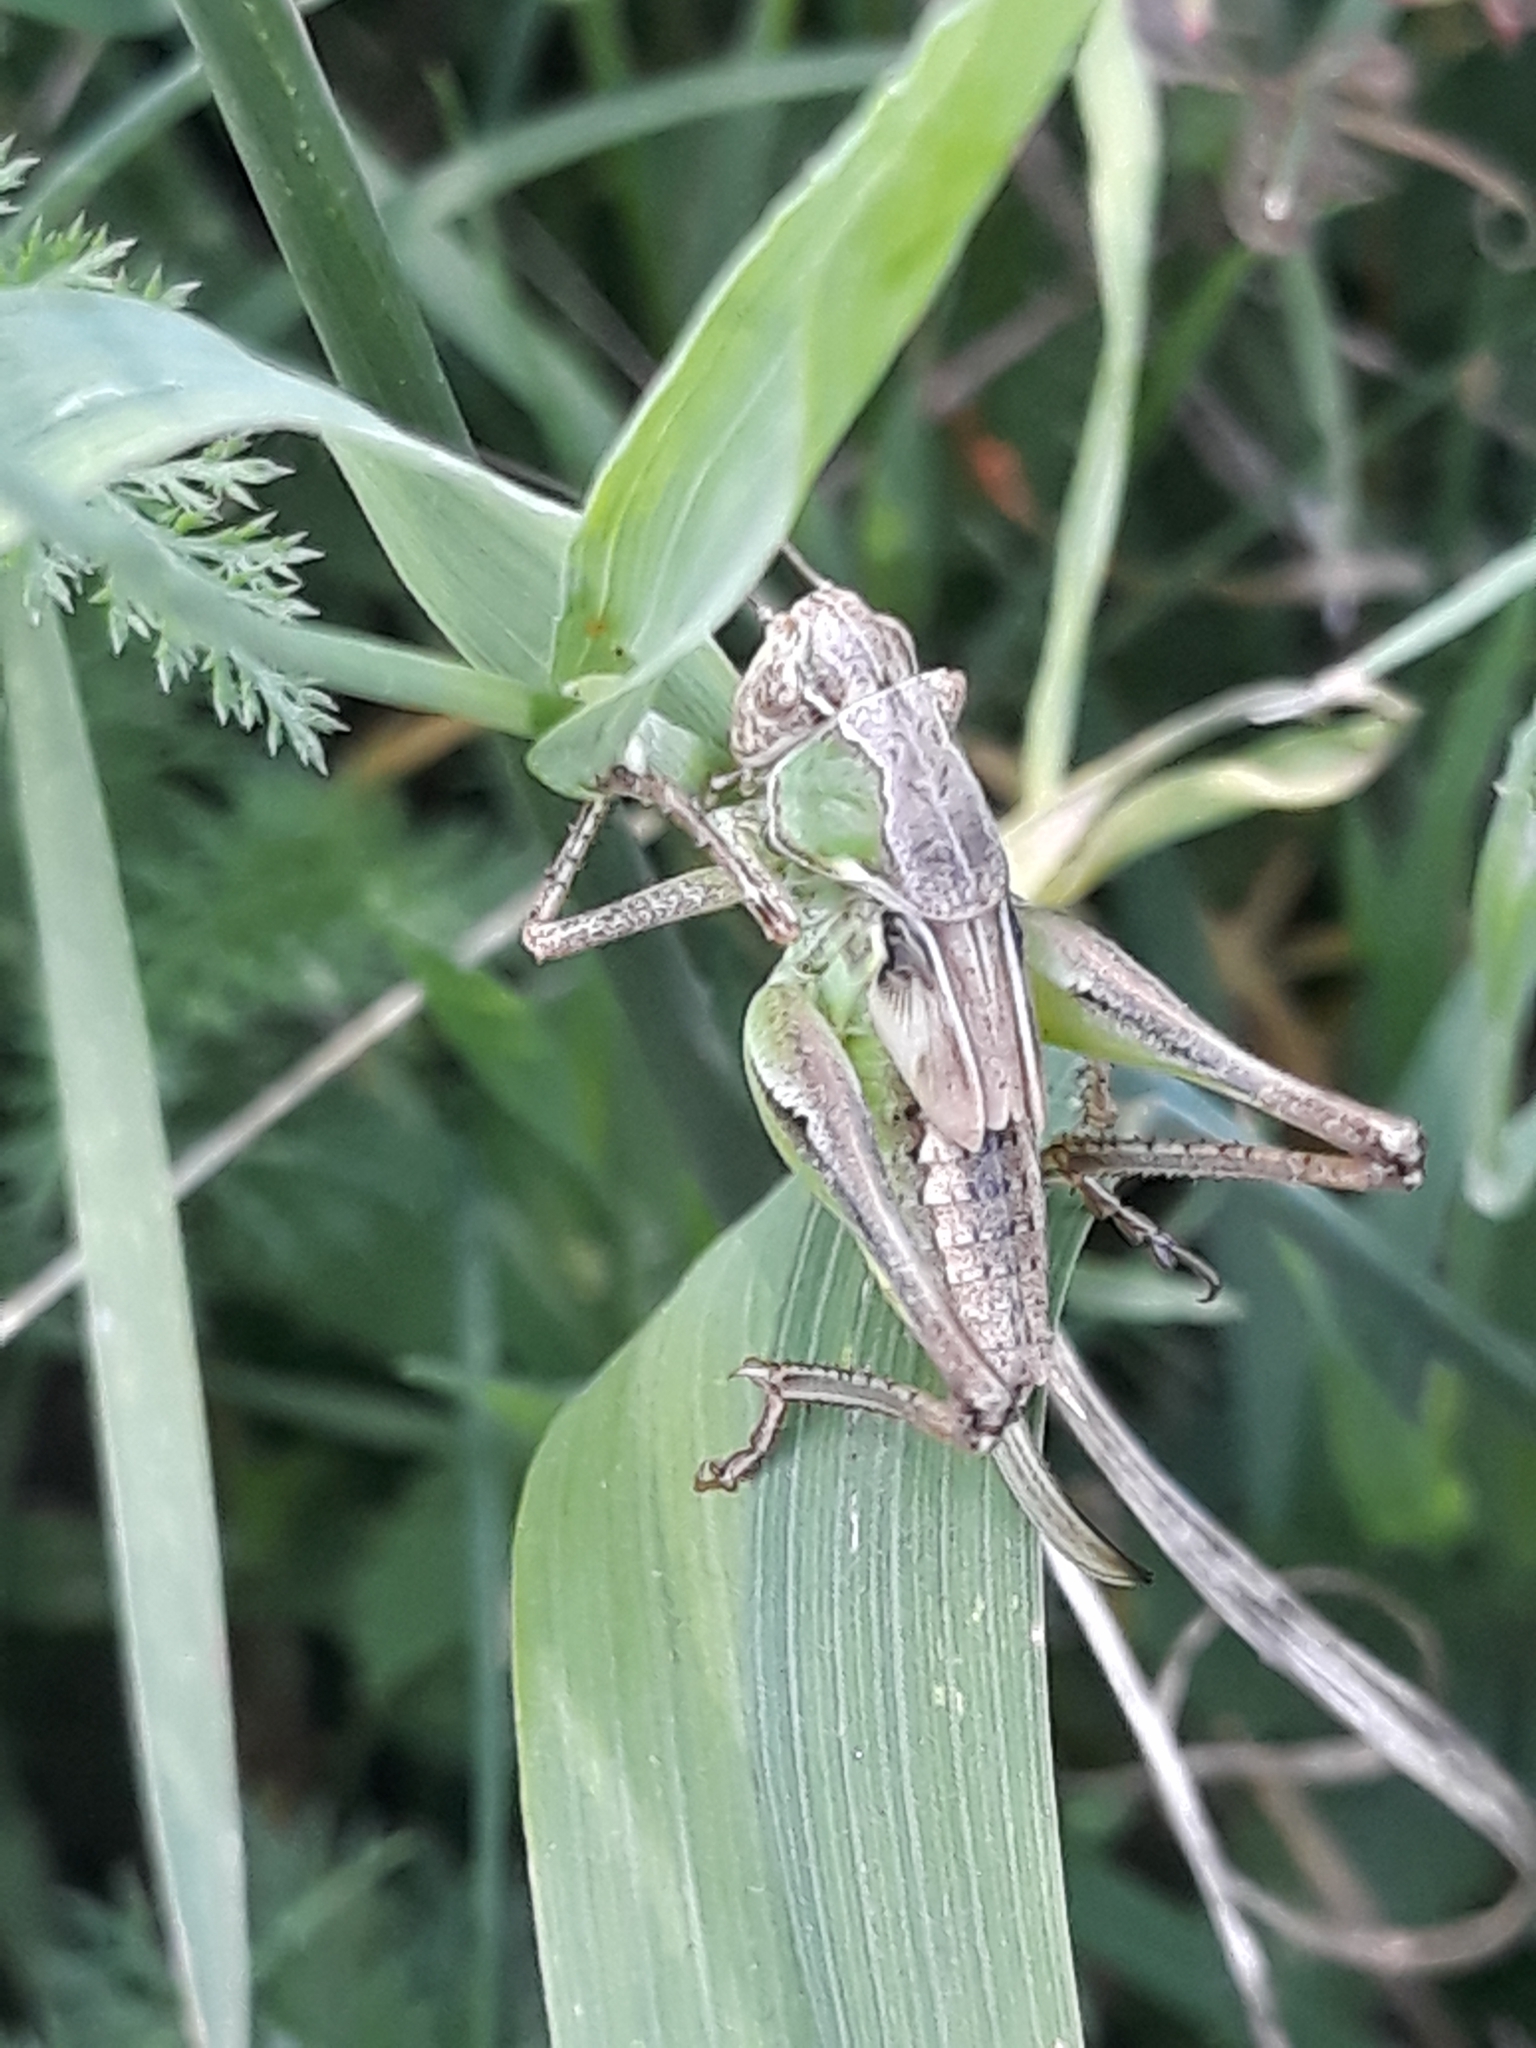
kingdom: Animalia
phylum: Arthropoda
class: Insecta
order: Orthoptera
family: Tettigoniidae
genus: Platycleis
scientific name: Platycleis albopunctata
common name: Grey bush-cricket
